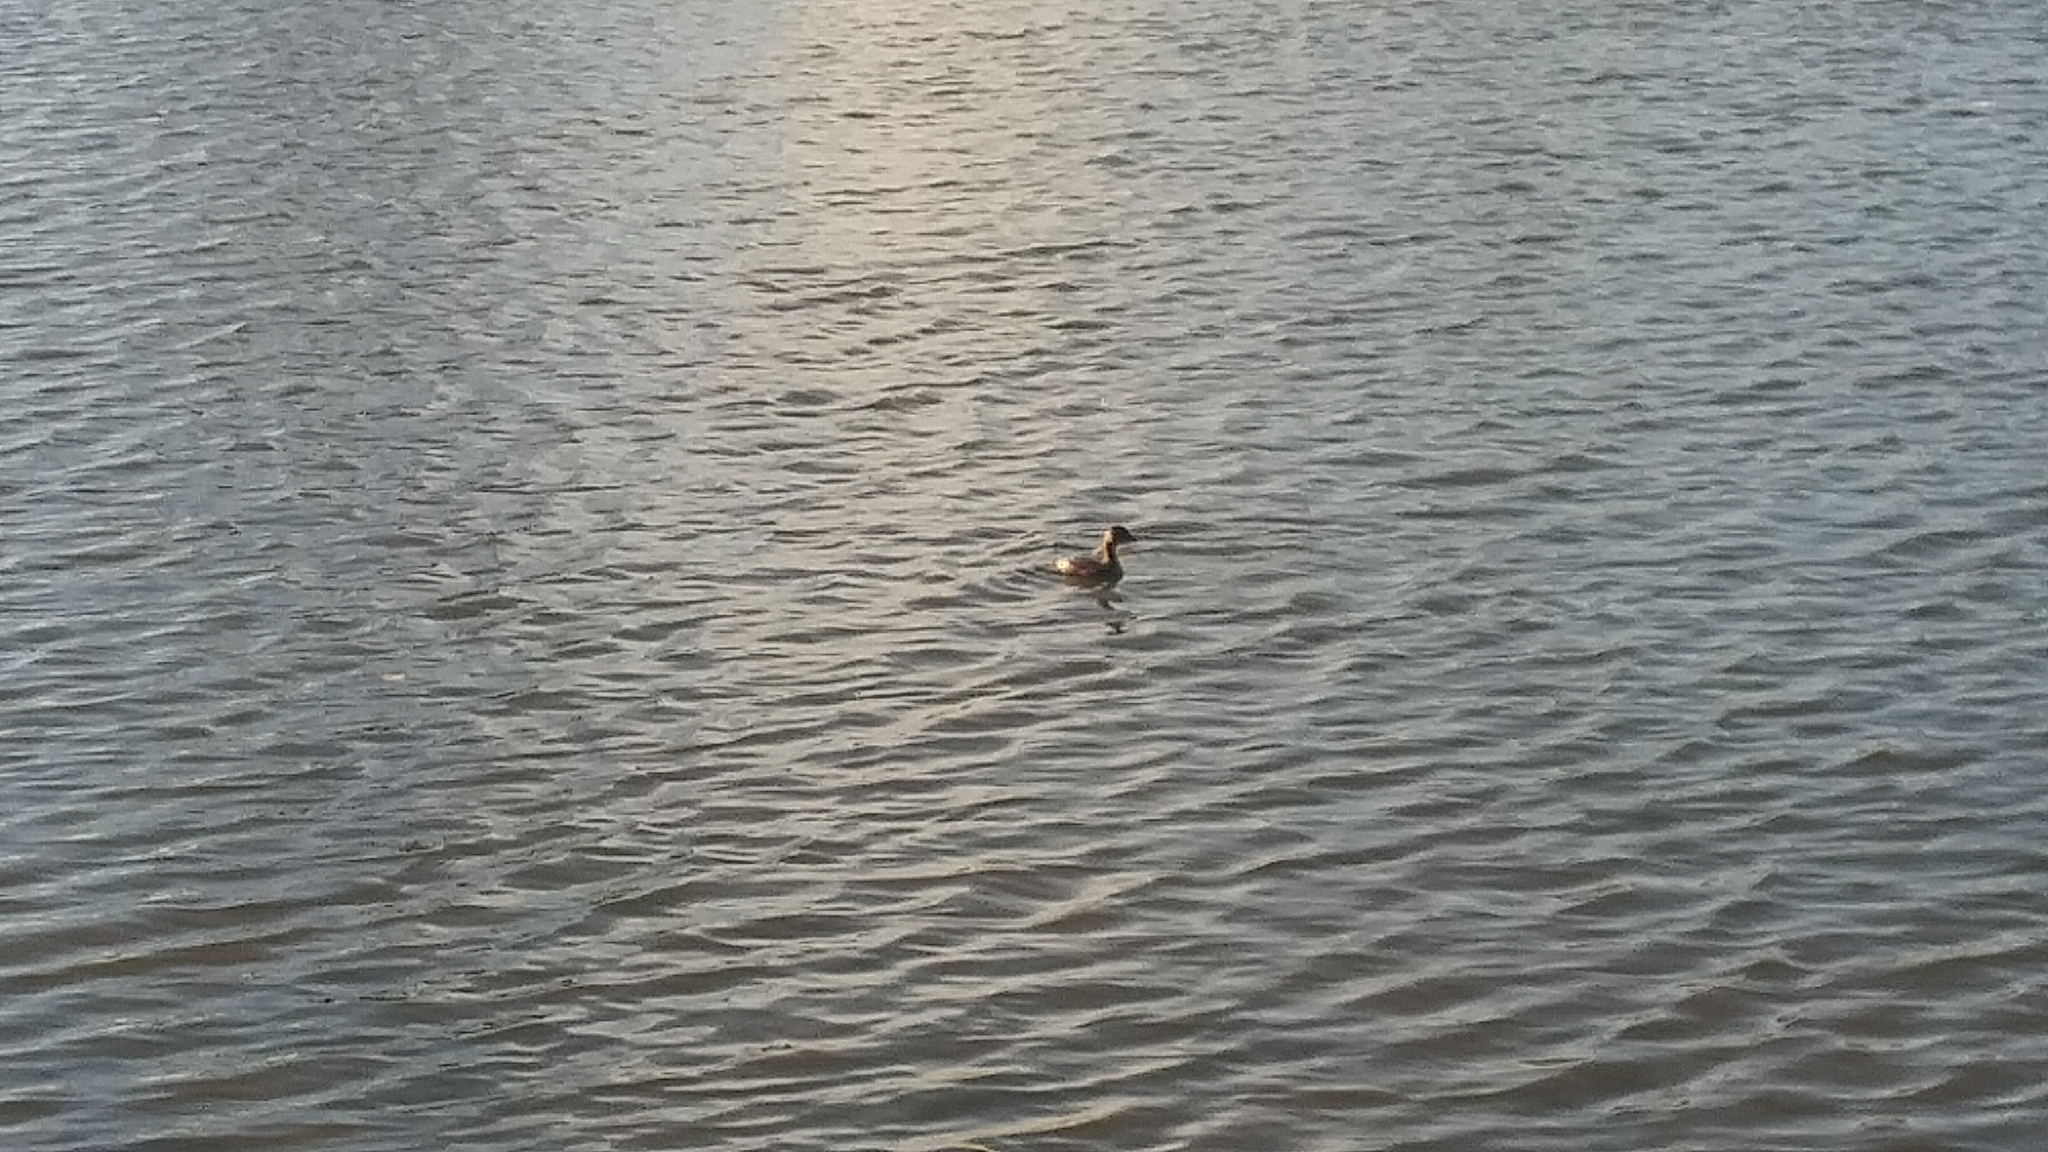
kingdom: Animalia
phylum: Chordata
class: Aves
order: Podicipediformes
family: Podicipedidae
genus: Podilymbus
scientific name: Podilymbus podiceps
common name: Pied-billed grebe
